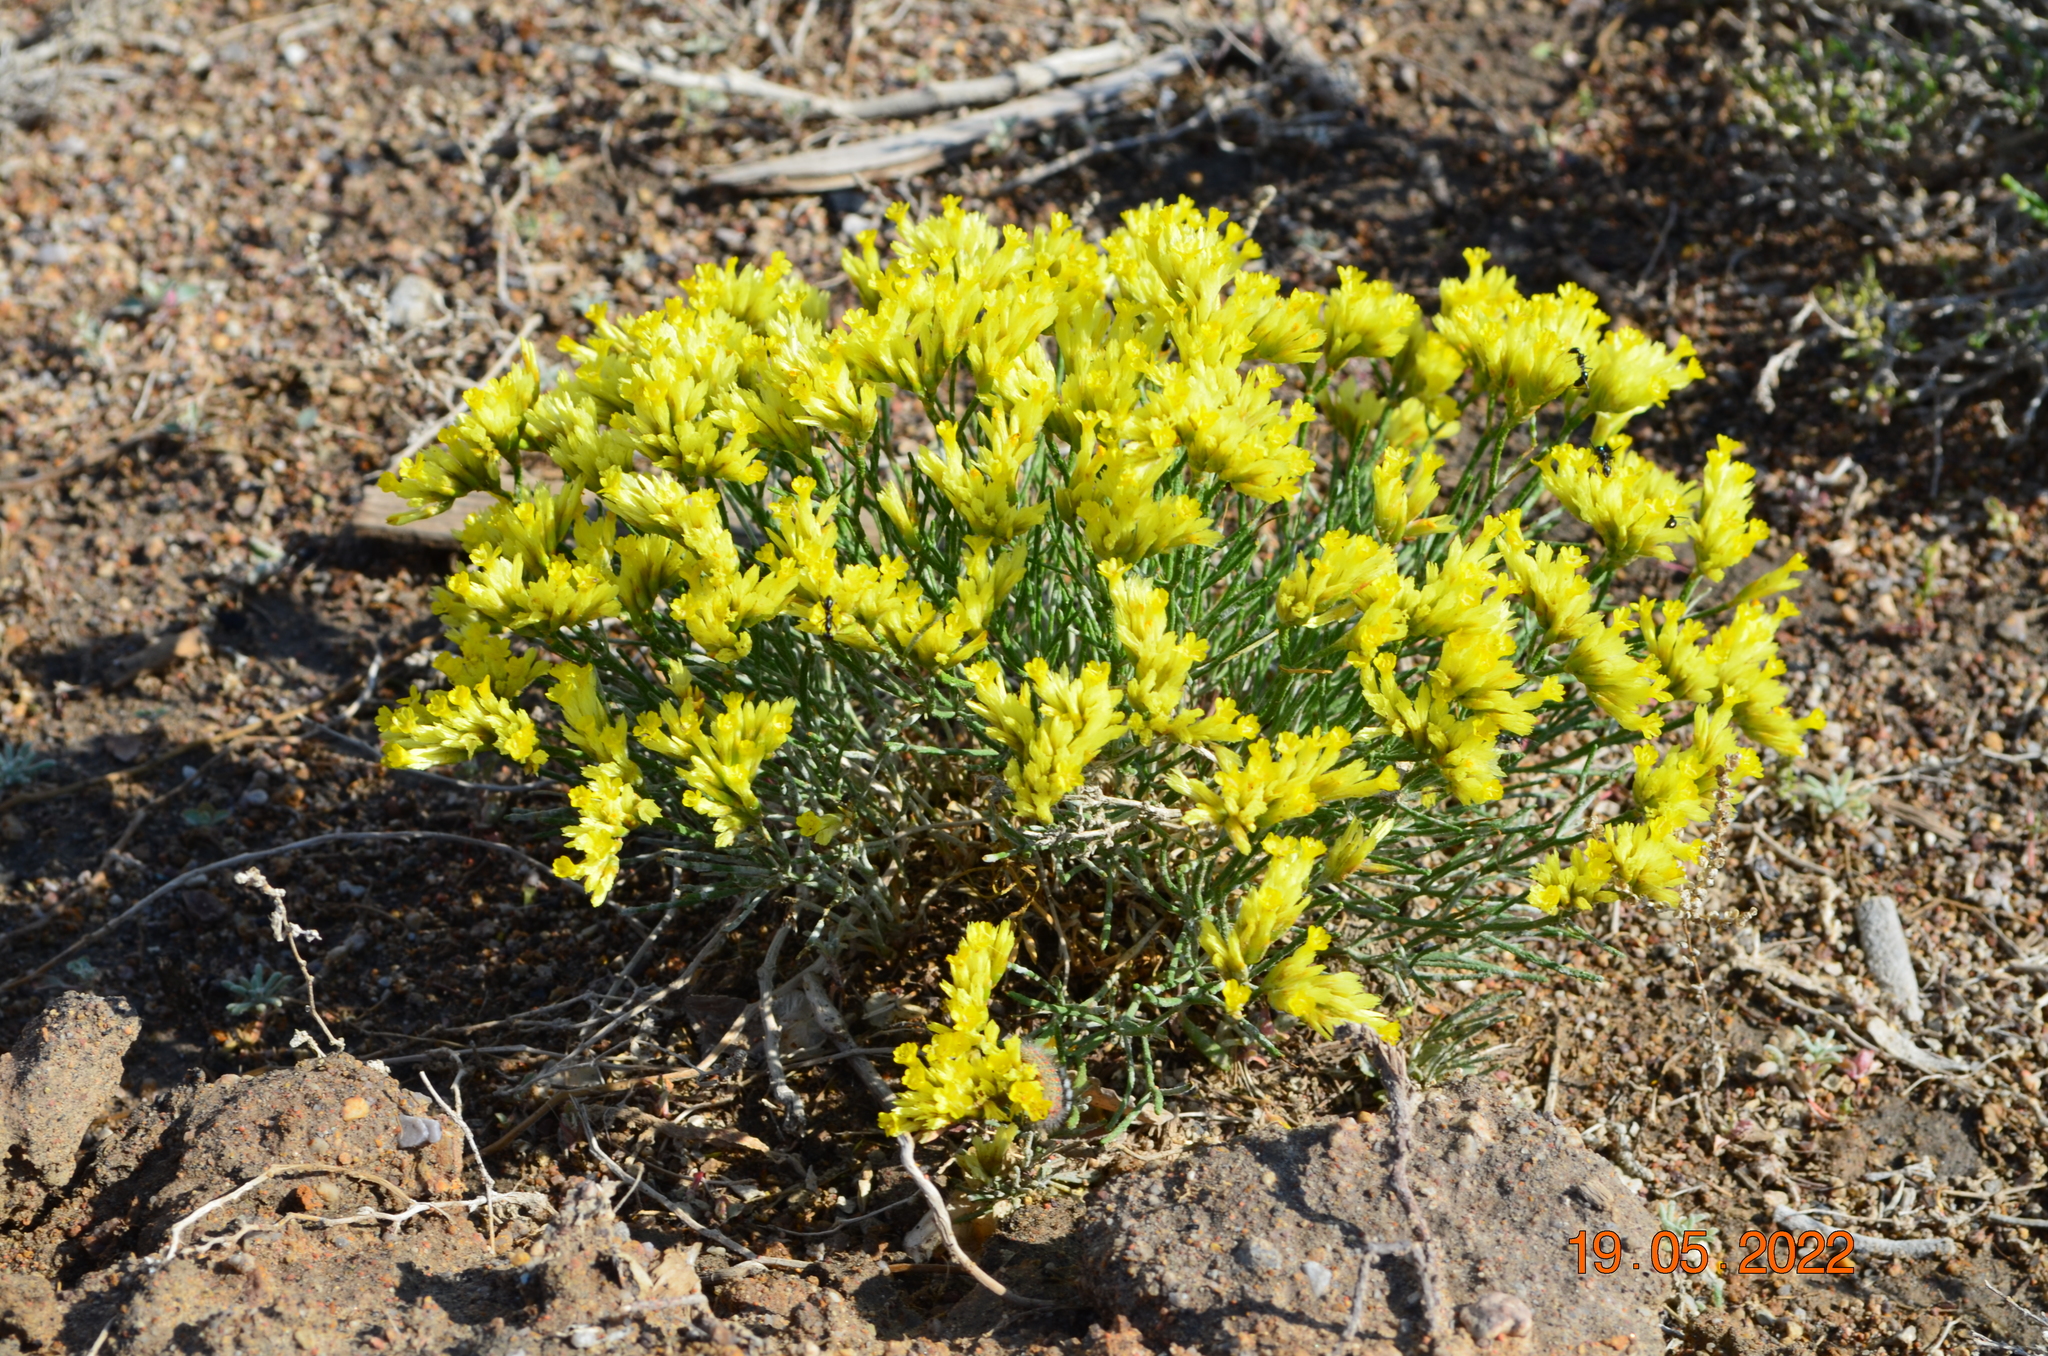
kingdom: Plantae
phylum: Tracheophyta
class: Magnoliopsida
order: Caryophyllales
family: Plumbaginaceae
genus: Limonium
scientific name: Limonium chrysocomum
